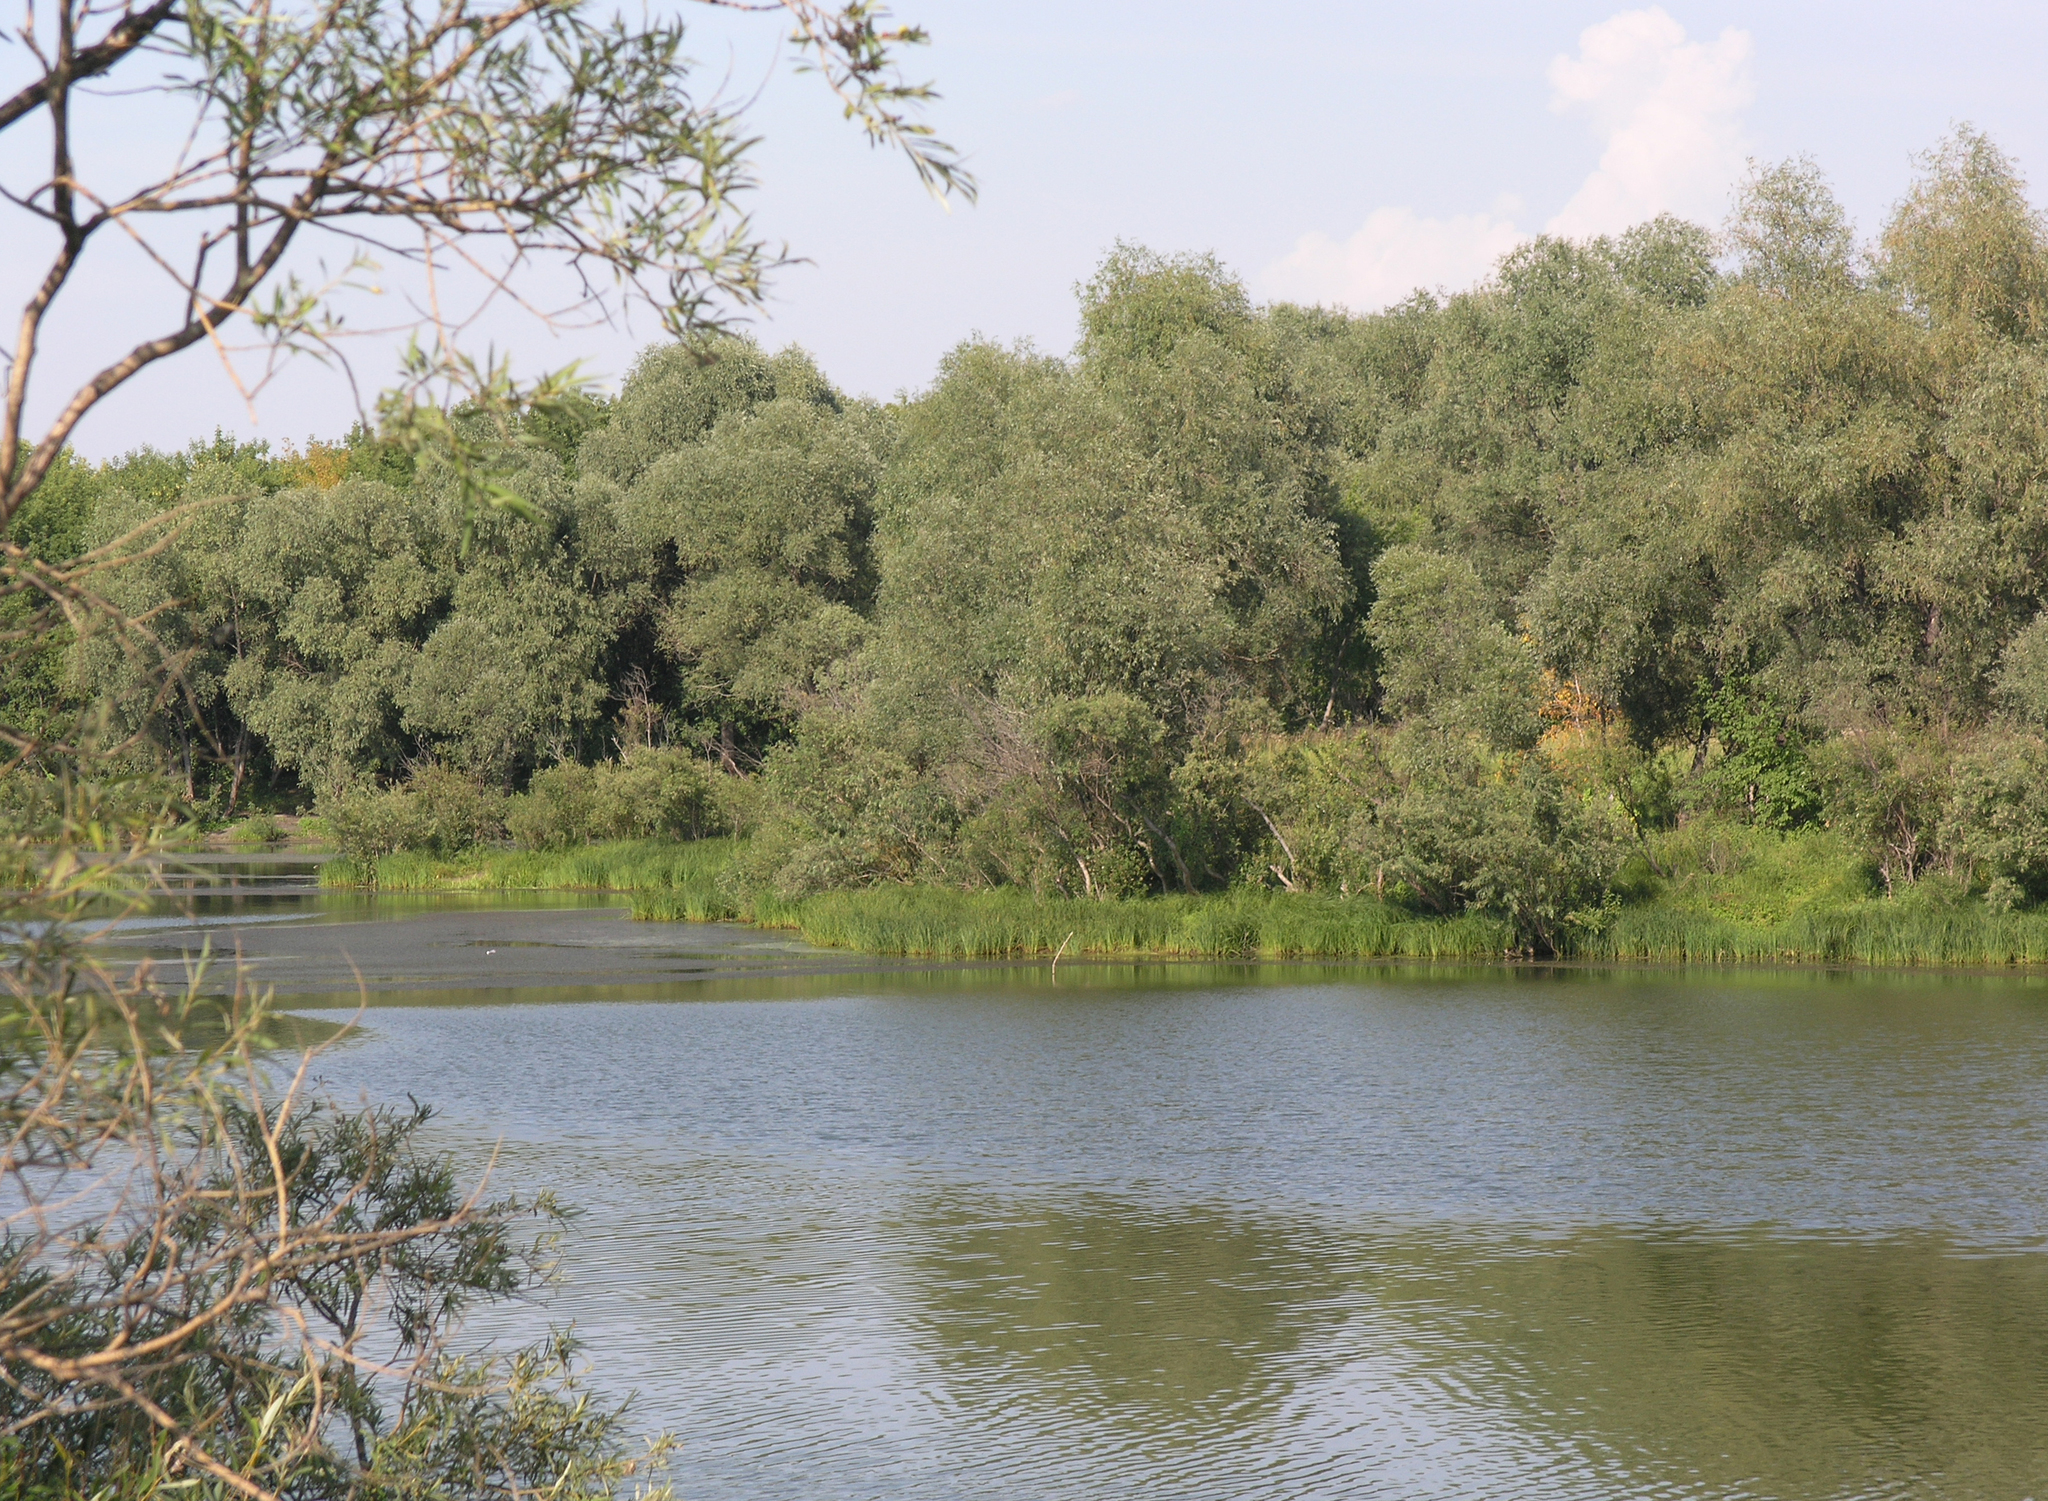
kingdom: Plantae
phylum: Tracheophyta
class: Magnoliopsida
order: Malpighiales
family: Salicaceae
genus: Salix
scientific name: Salix alba
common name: White willow
